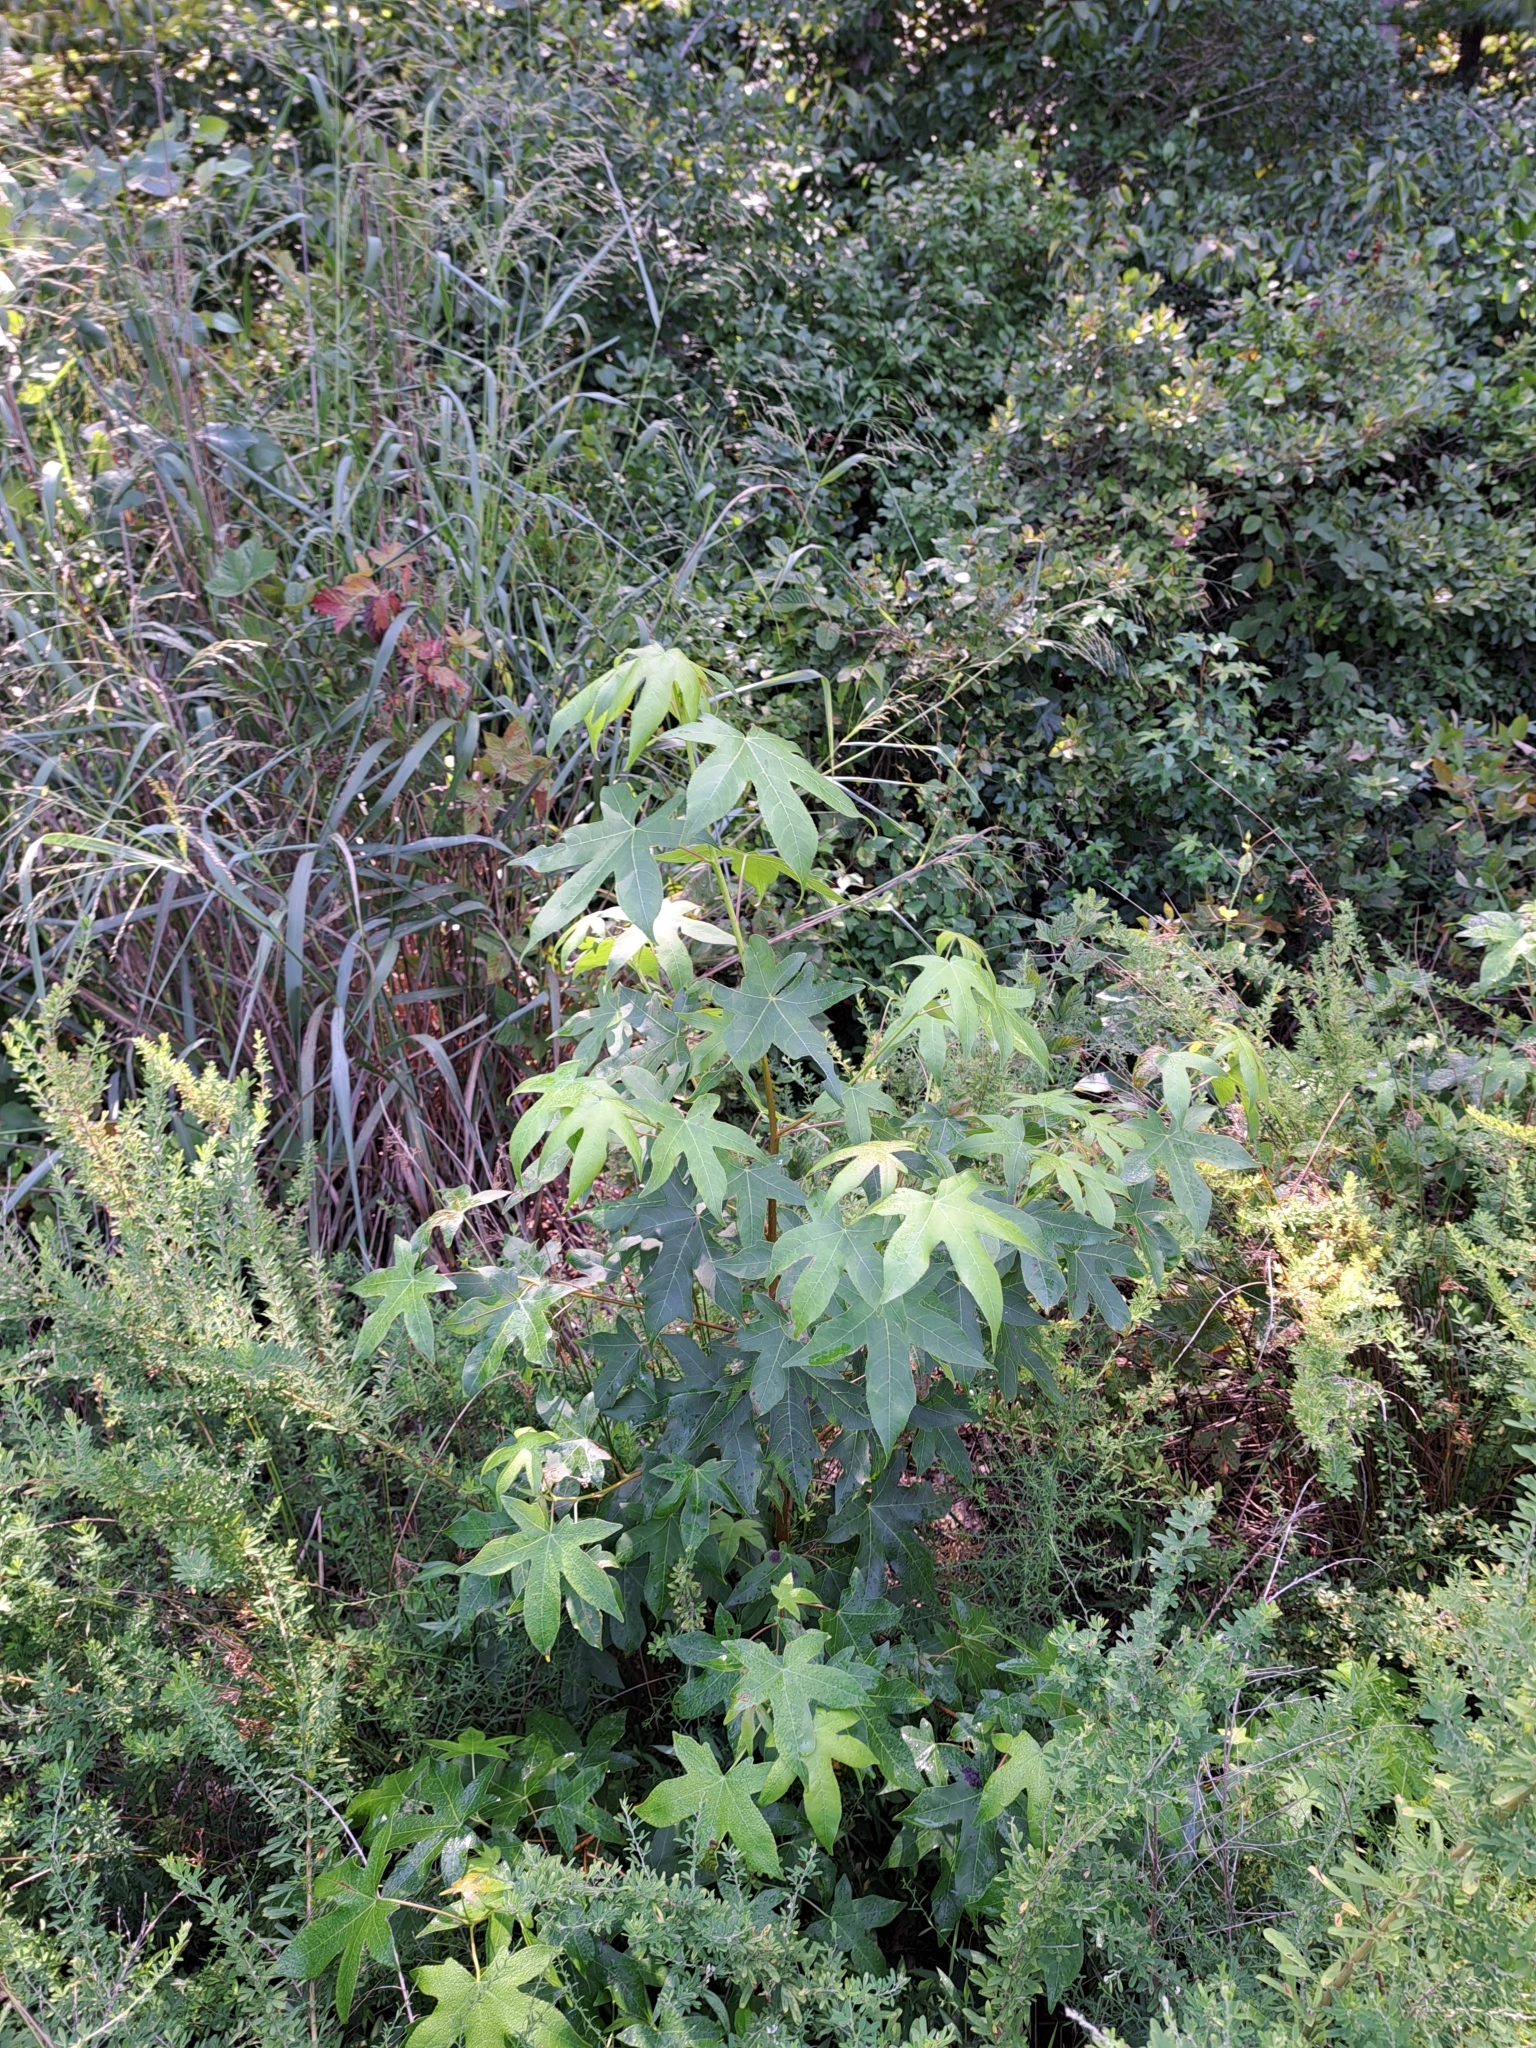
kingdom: Plantae
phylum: Tracheophyta
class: Magnoliopsida
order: Saxifragales
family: Altingiaceae
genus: Liquidambar
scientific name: Liquidambar styraciflua
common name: Sweet gum
